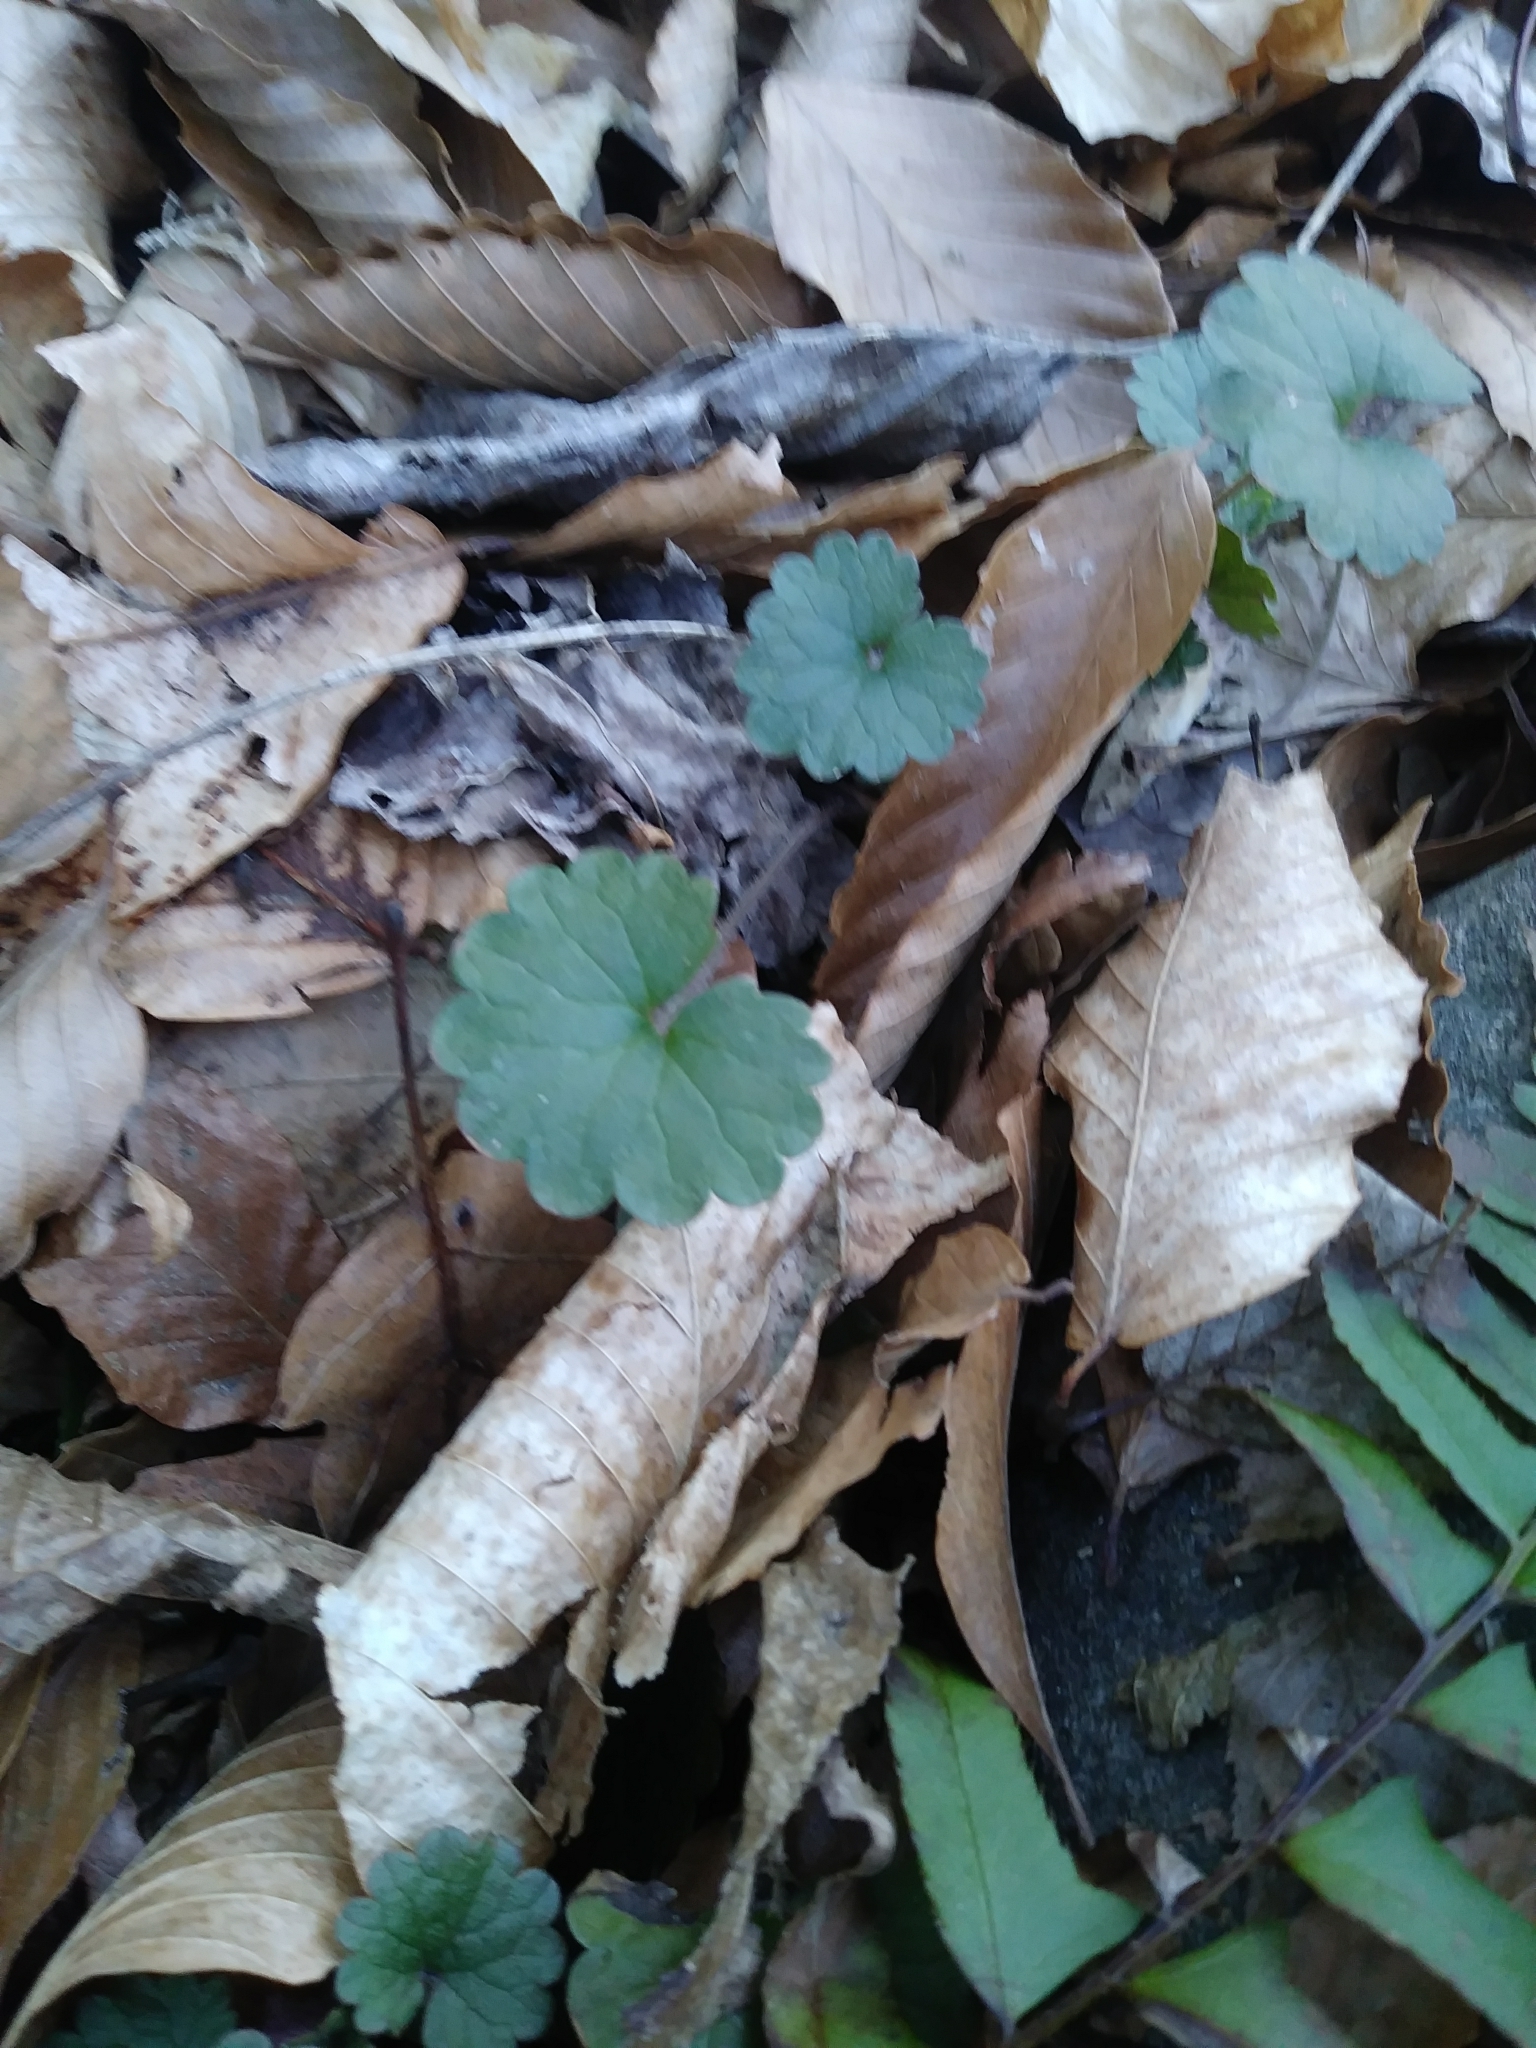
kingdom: Plantae
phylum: Tracheophyta
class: Magnoliopsida
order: Lamiales
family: Lamiaceae
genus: Glechoma
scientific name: Glechoma hederacea
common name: Ground ivy
